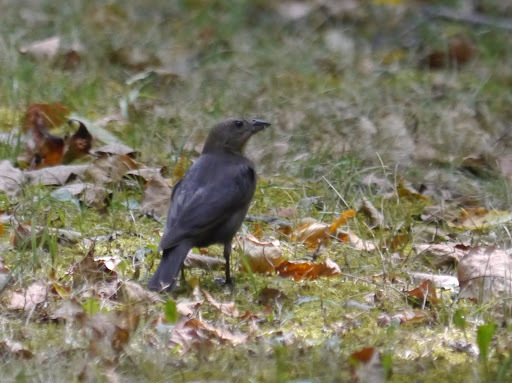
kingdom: Animalia
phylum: Chordata
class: Aves
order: Passeriformes
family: Icteridae
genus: Molothrus
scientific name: Molothrus ater
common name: Brown-headed cowbird
